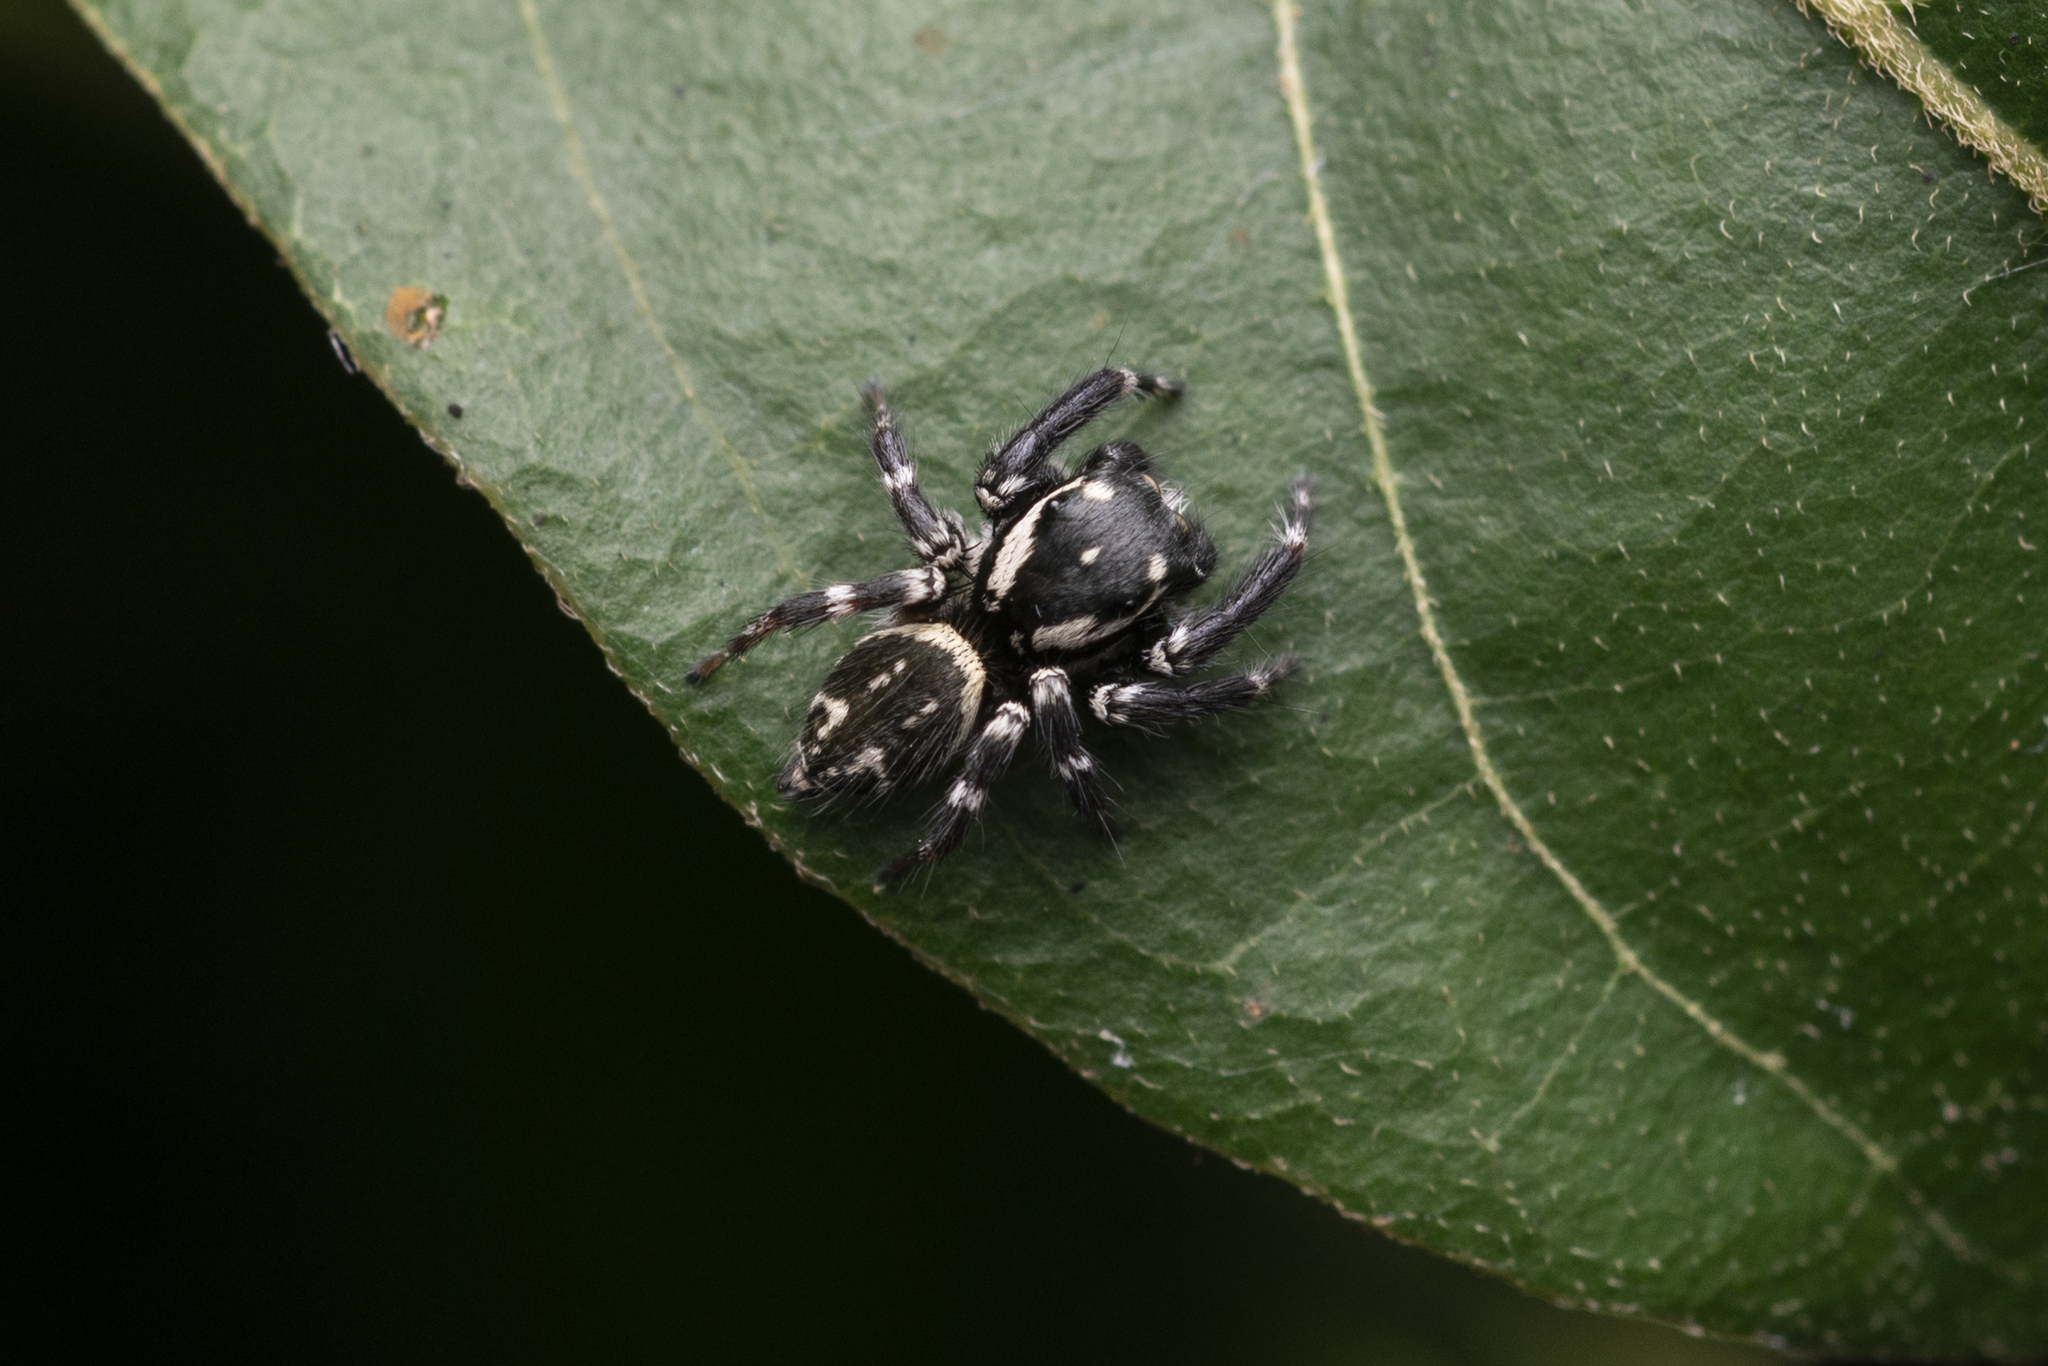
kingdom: Animalia
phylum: Arthropoda
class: Arachnida
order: Araneae
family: Salticidae
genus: Carrhotus
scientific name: Carrhotus sannio
